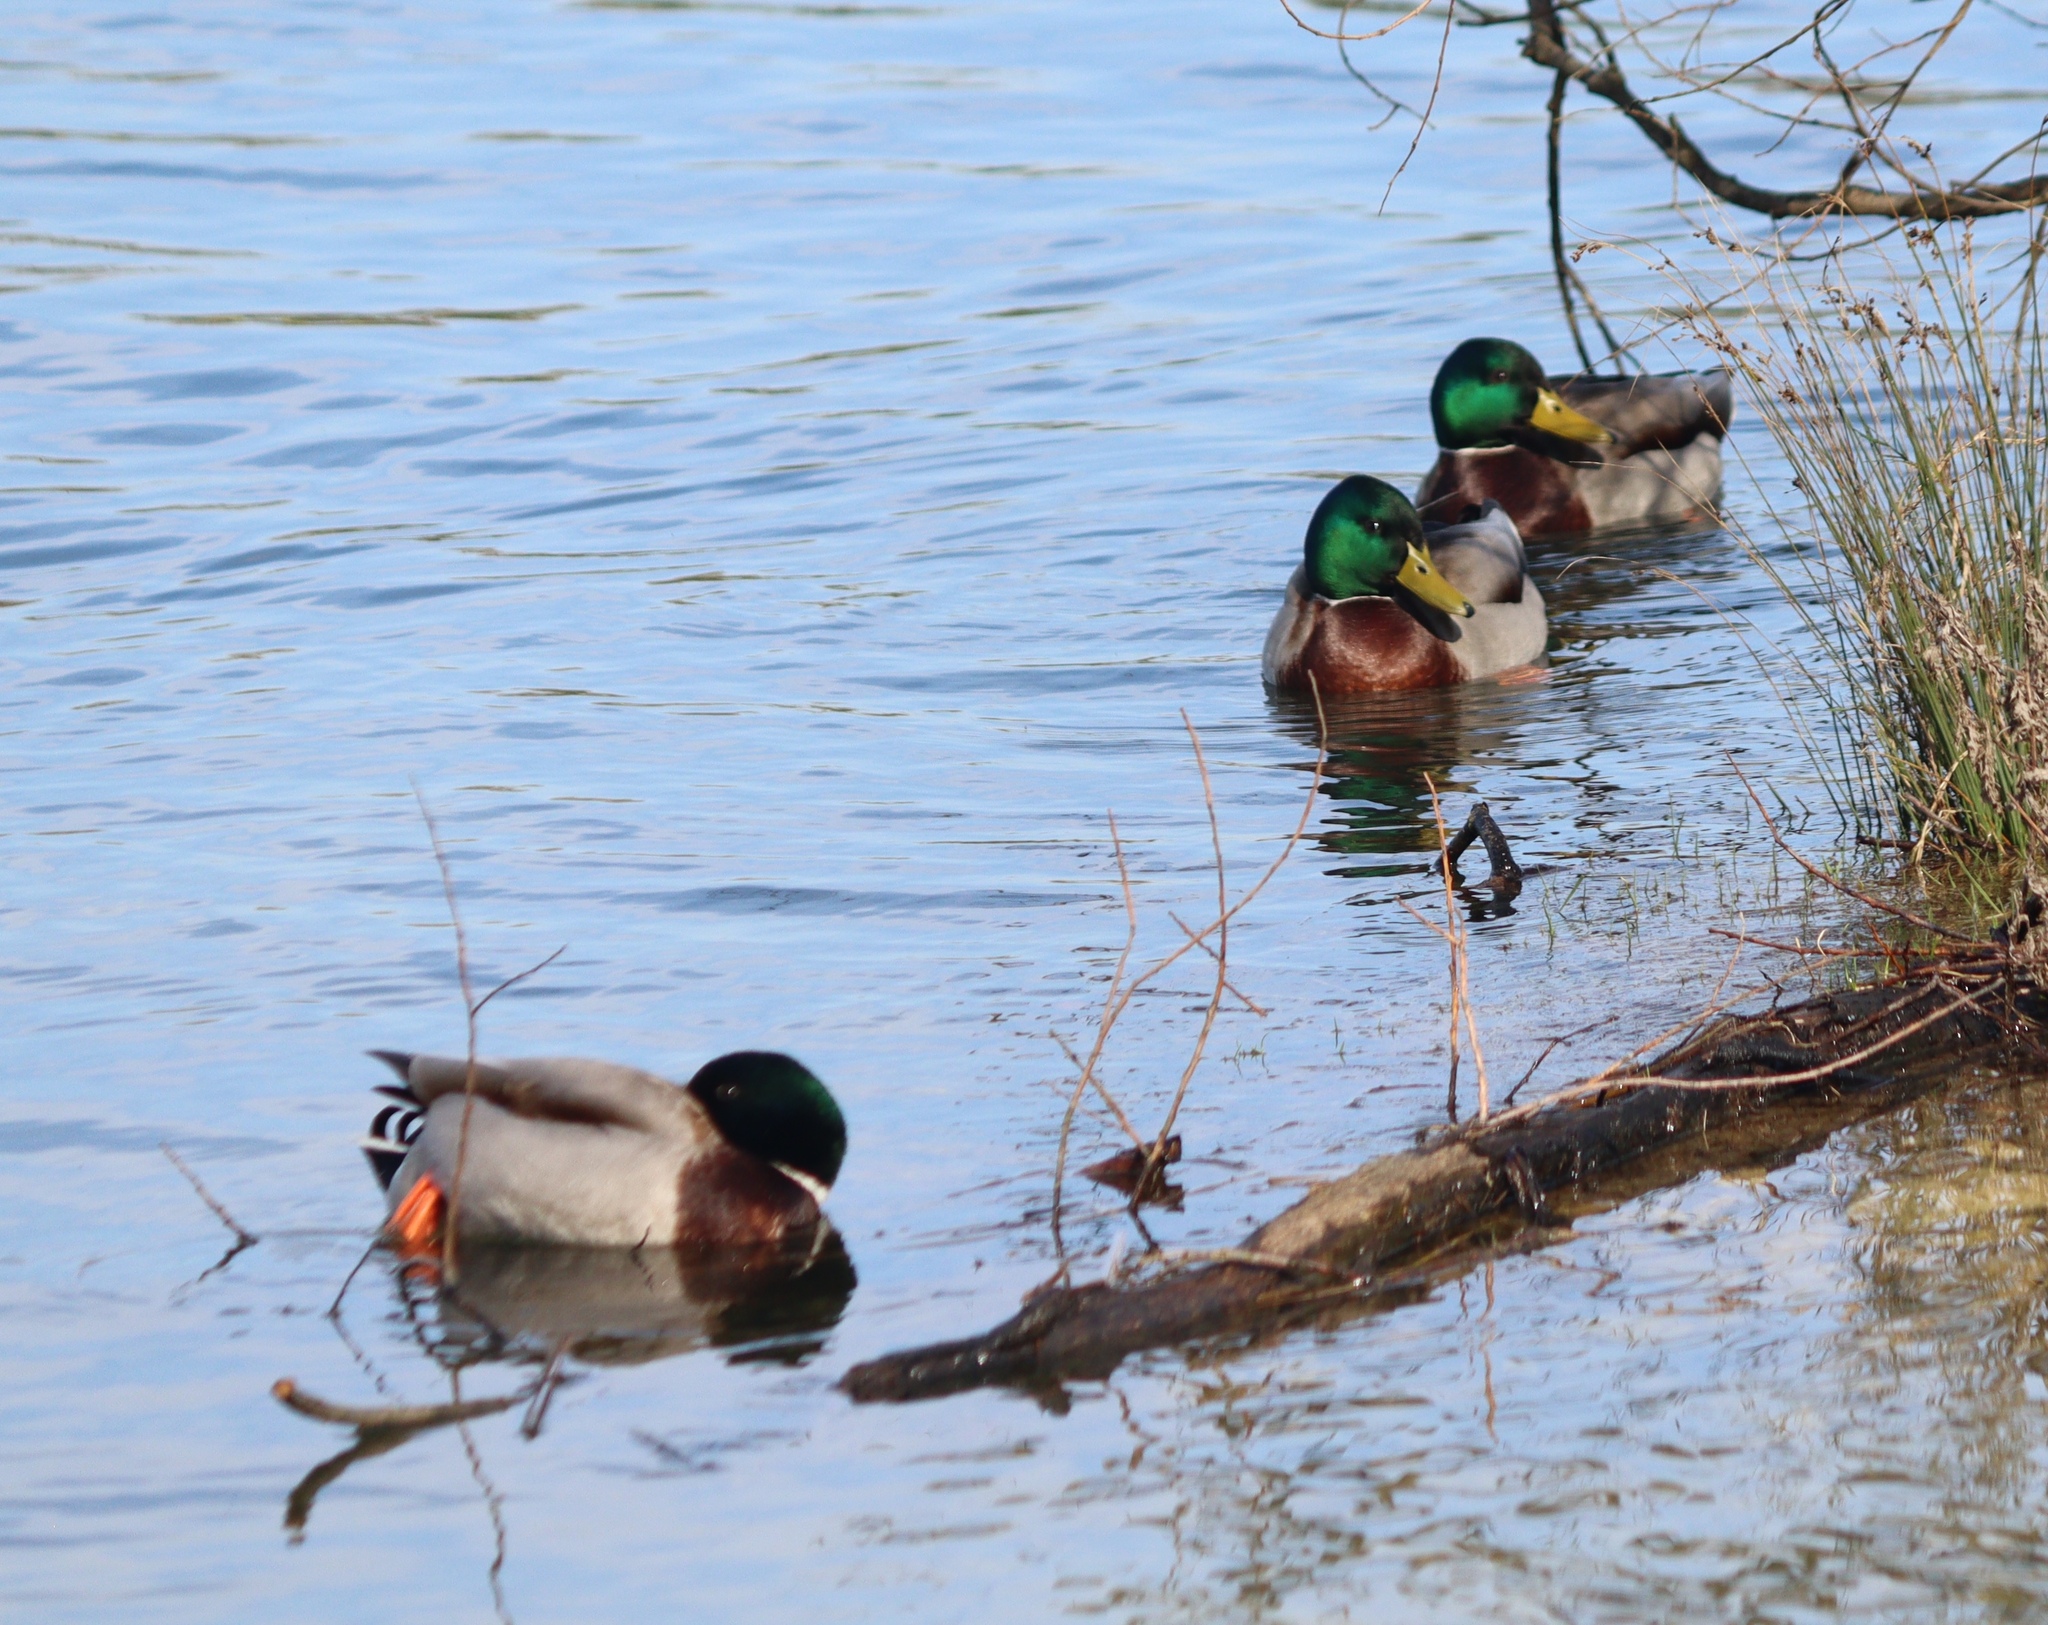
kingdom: Animalia
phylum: Chordata
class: Aves
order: Anseriformes
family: Anatidae
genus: Anas
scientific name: Anas platyrhynchos
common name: Mallard
